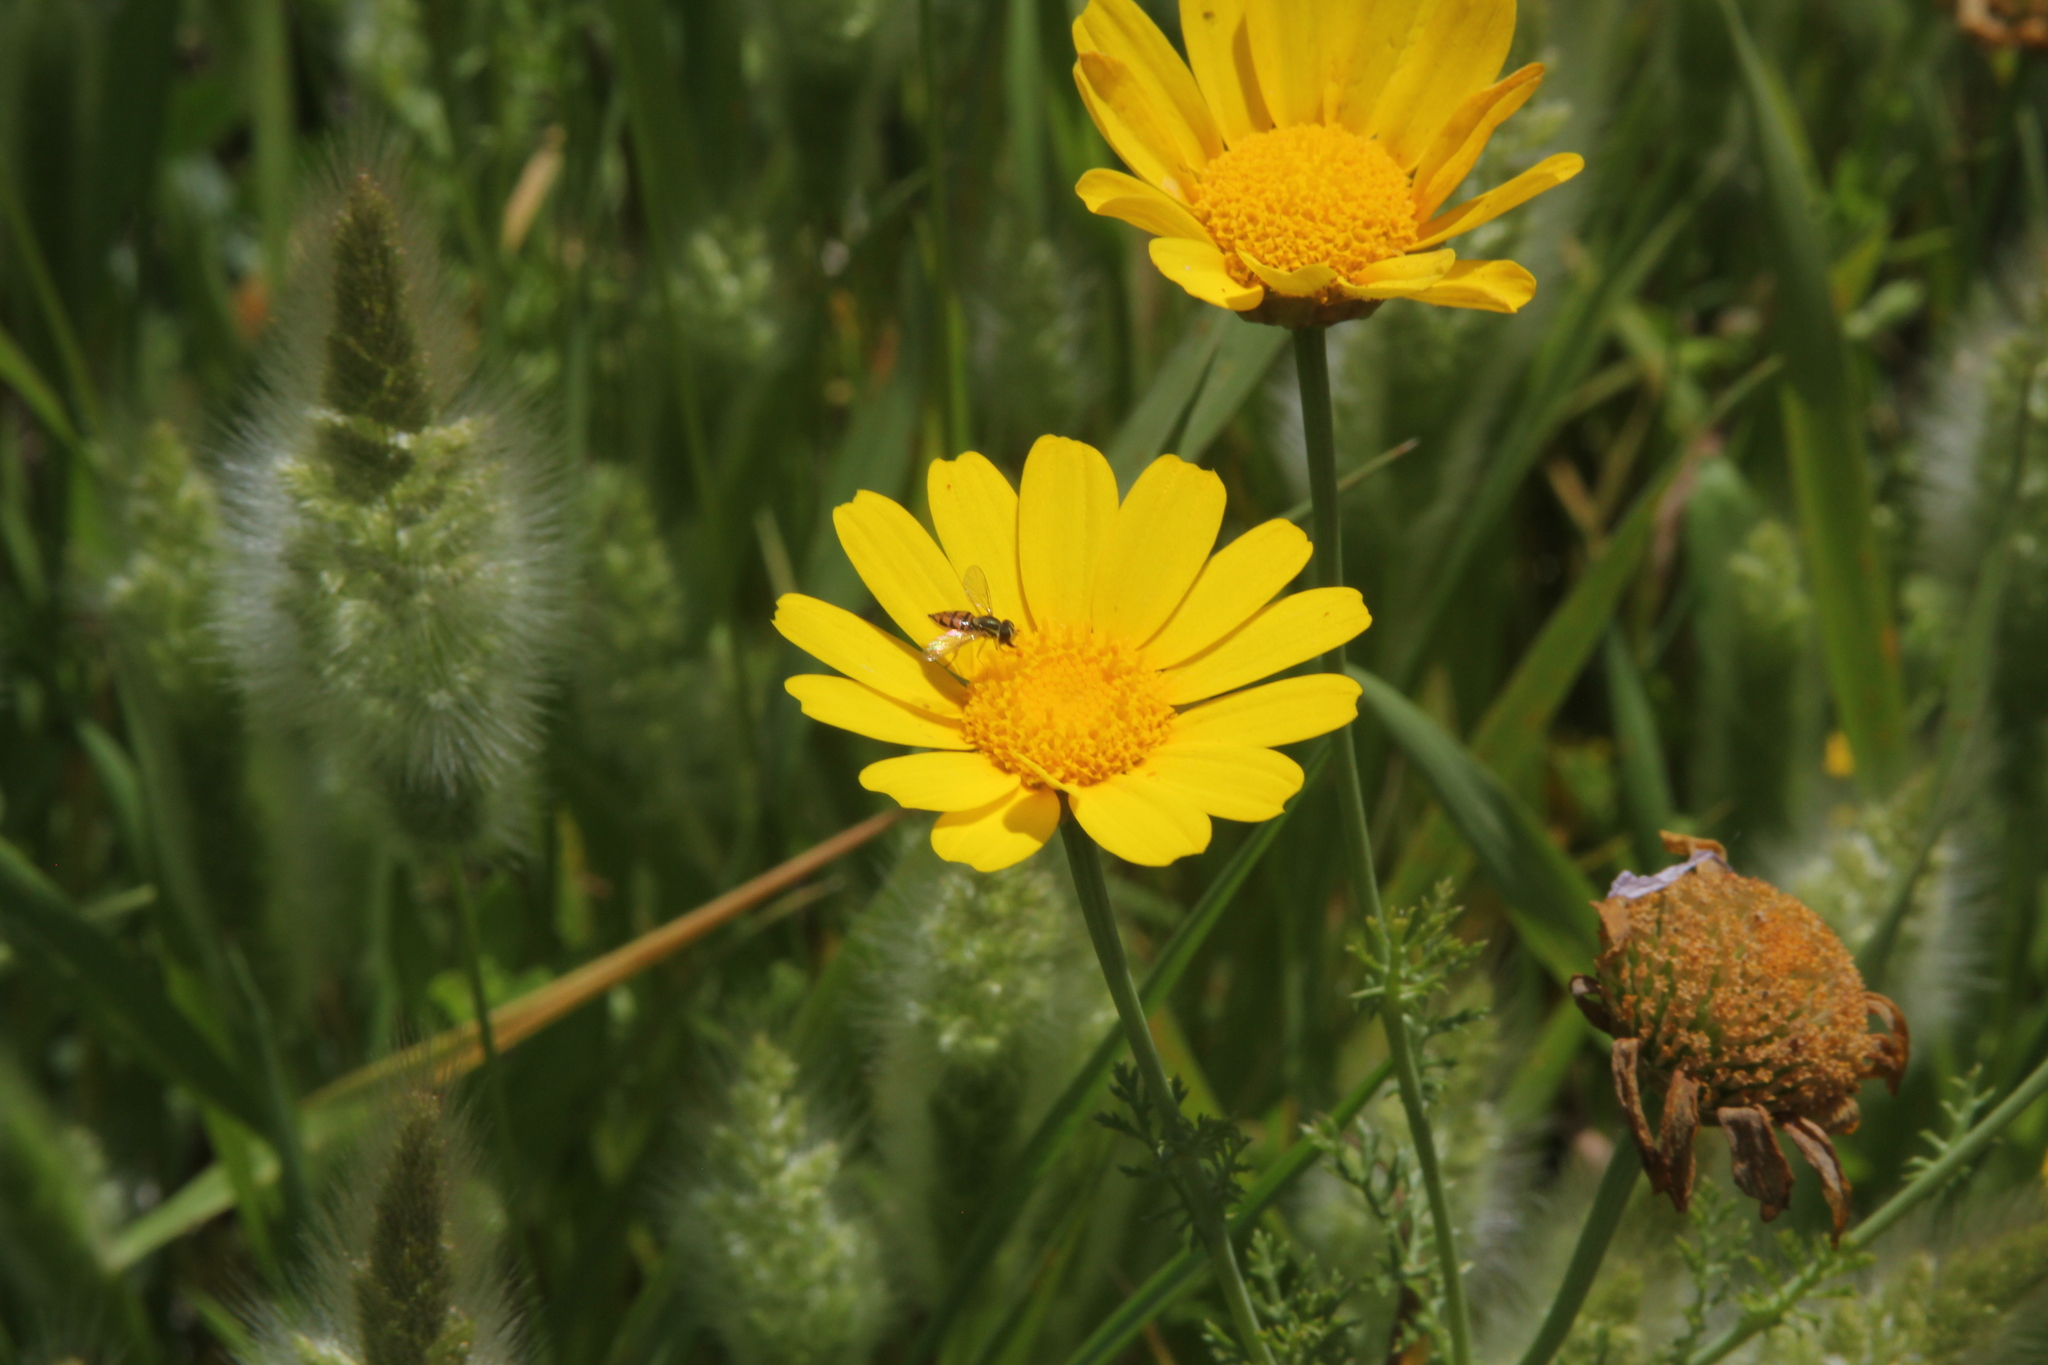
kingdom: Animalia
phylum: Arthropoda
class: Insecta
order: Diptera
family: Syrphidae
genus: Toxomerus
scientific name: Toxomerus marginatus
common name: Syrphid fly
